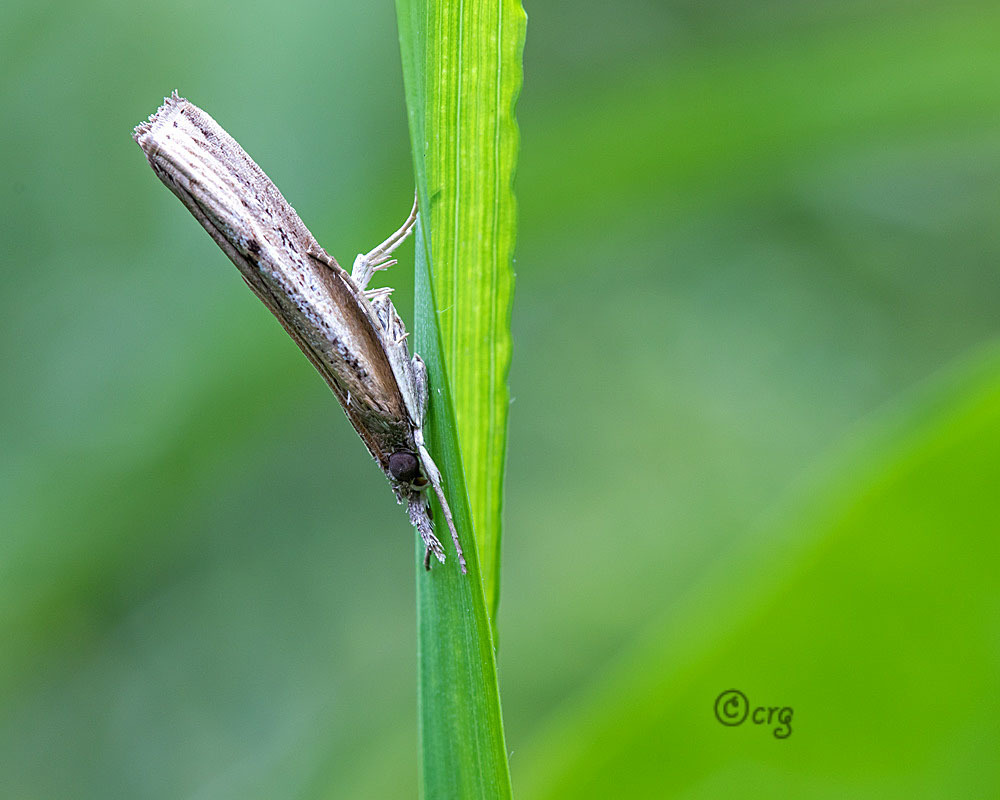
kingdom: Animalia
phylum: Arthropoda
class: Insecta
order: Lepidoptera
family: Crambidae
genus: Fissicrambus
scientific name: Fissicrambus mutabilis
